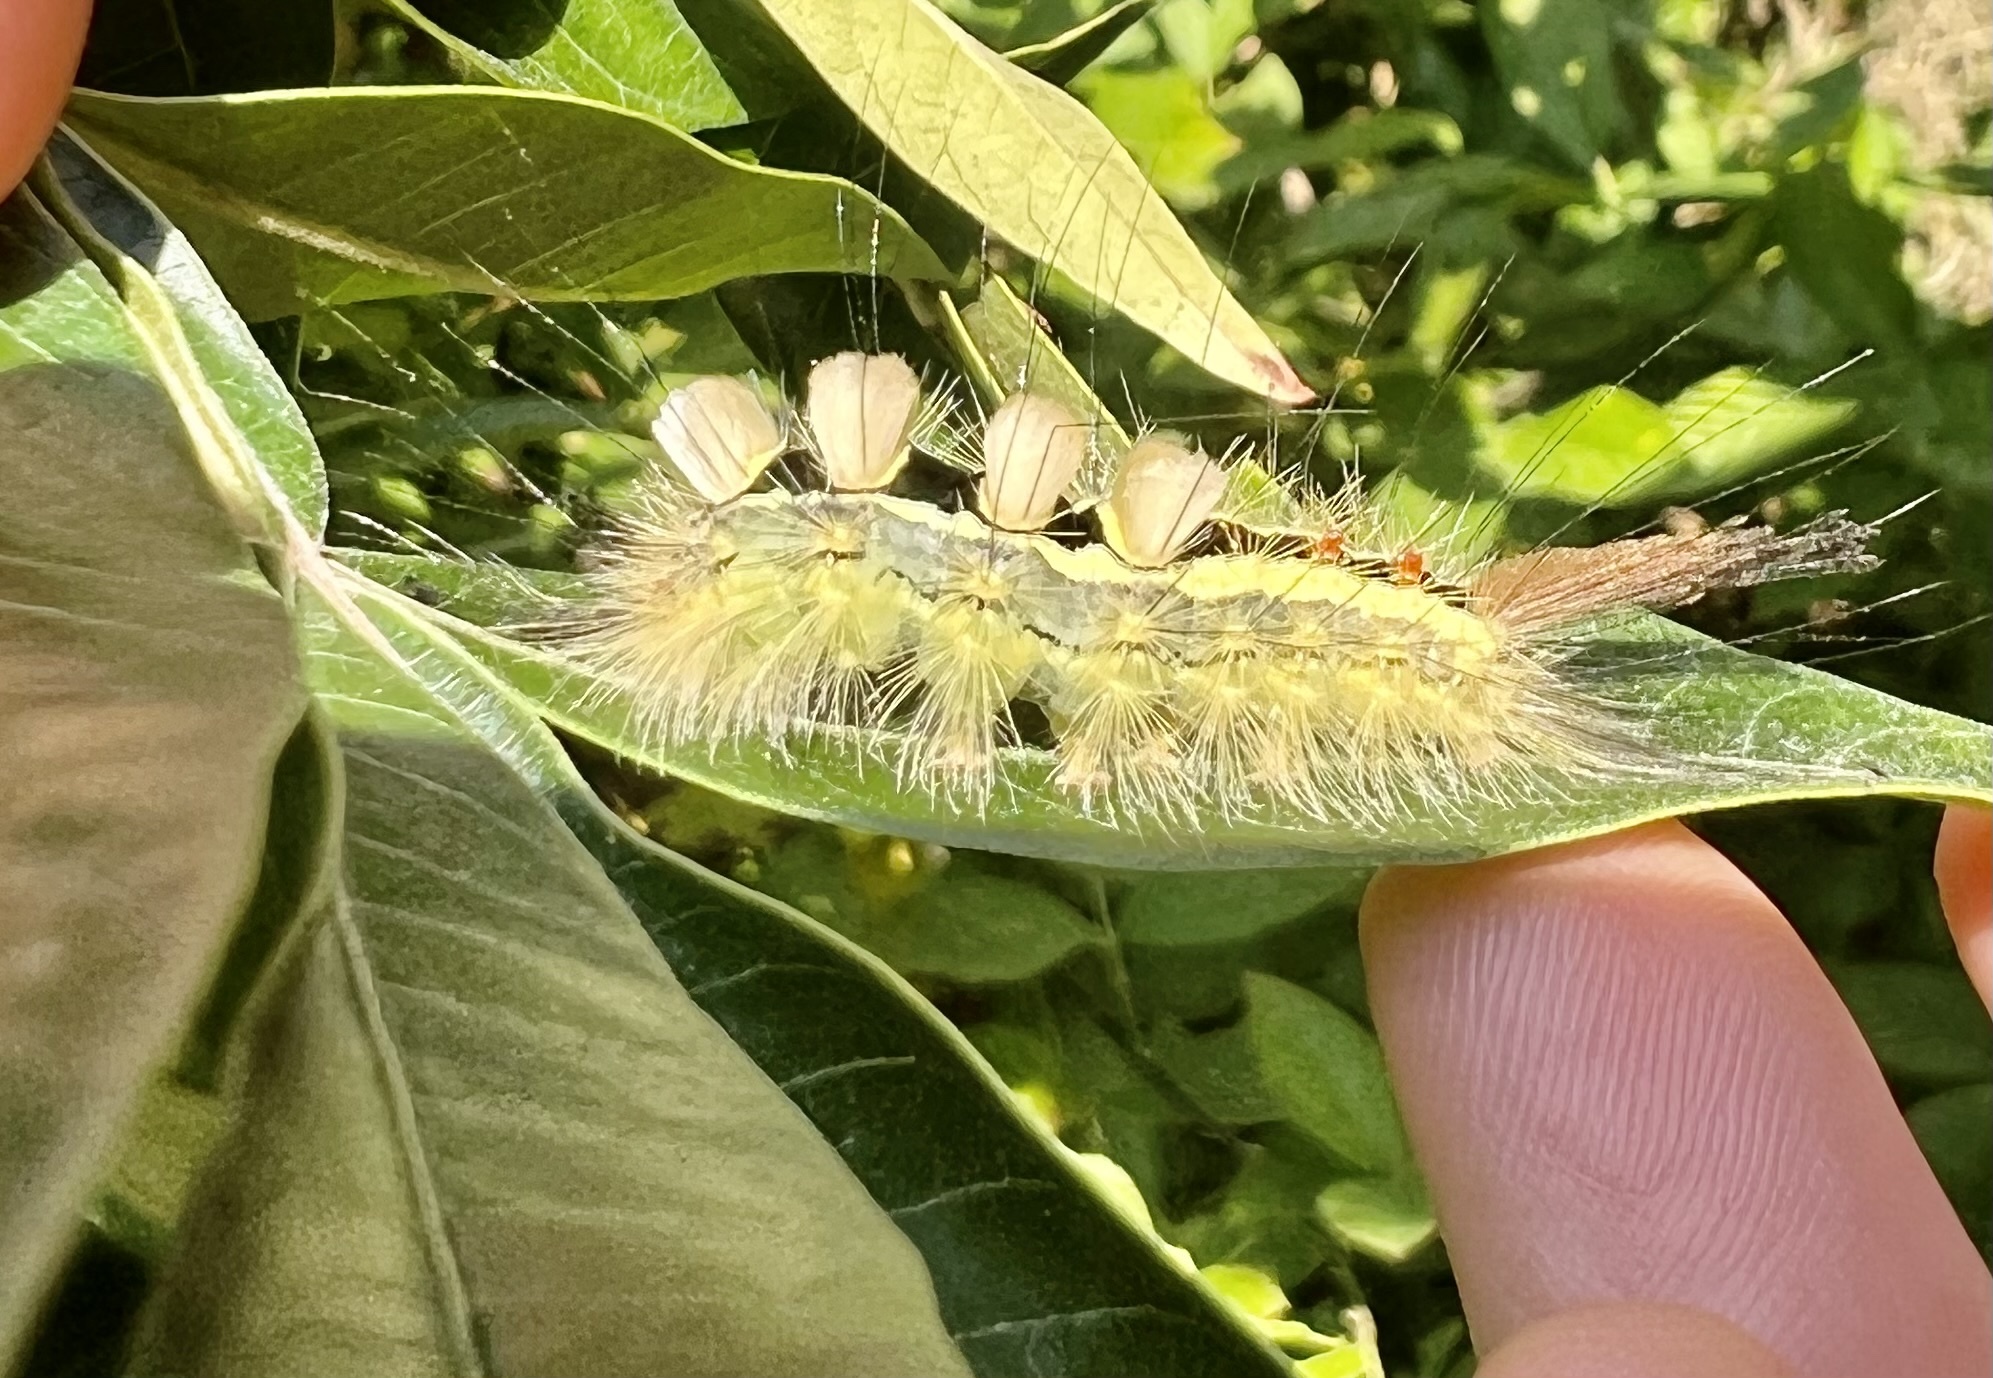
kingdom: Animalia
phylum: Arthropoda
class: Insecta
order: Lepidoptera
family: Erebidae
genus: Orgyia
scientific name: Orgyia leucostigma
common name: White-marked tussock moth
